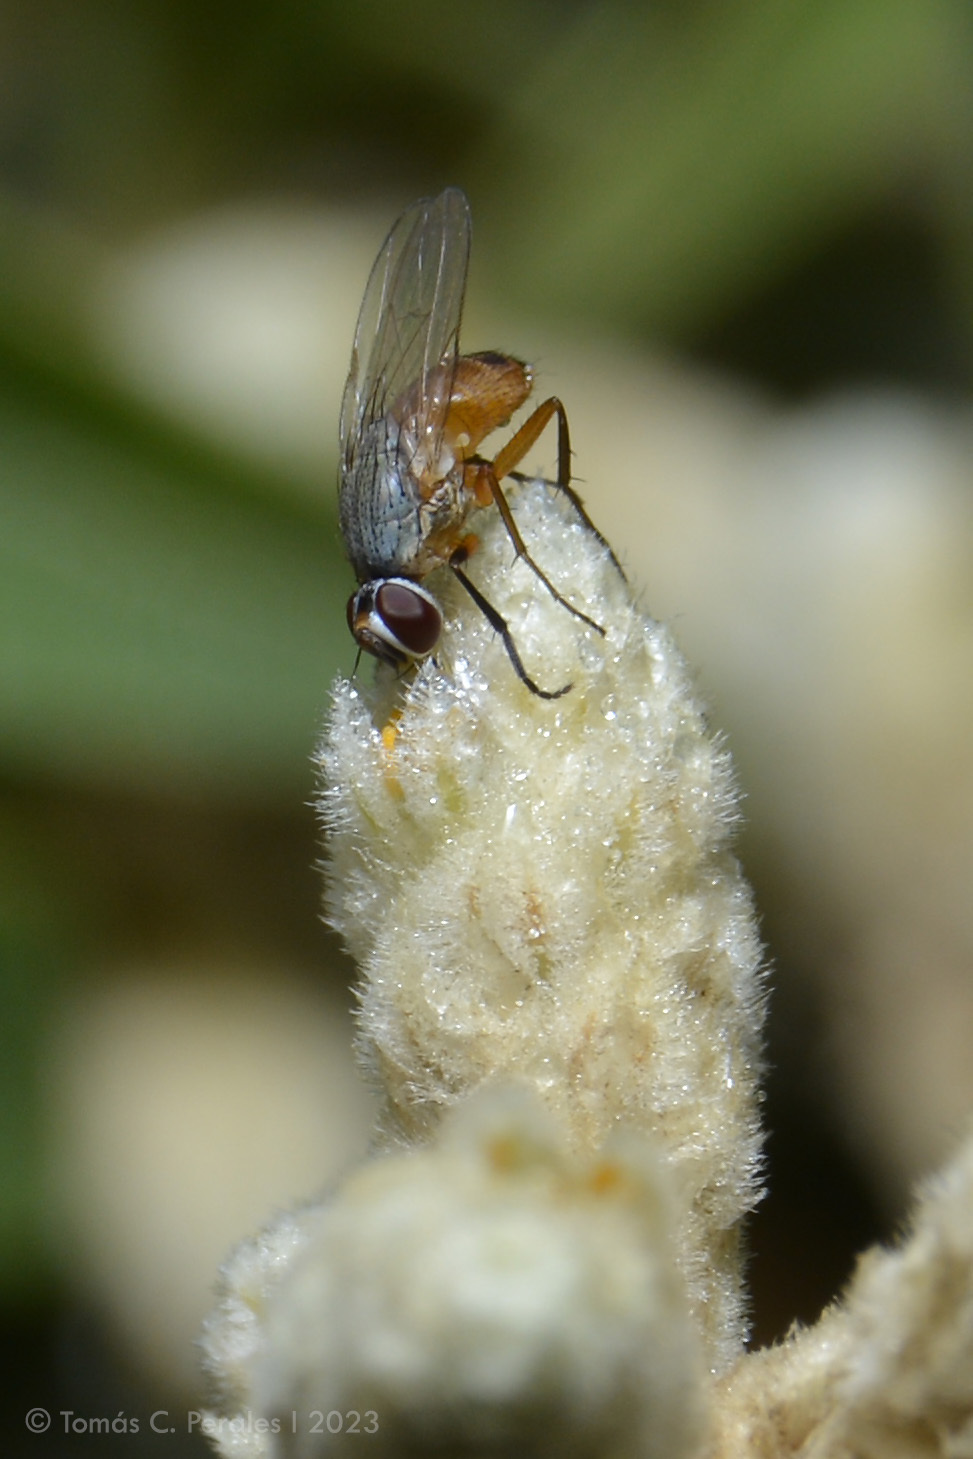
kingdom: Animalia
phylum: Arthropoda
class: Insecta
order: Diptera
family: Muscidae
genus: Atherigona
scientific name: Atherigona reversura
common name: Bermudagrass stem maggot
